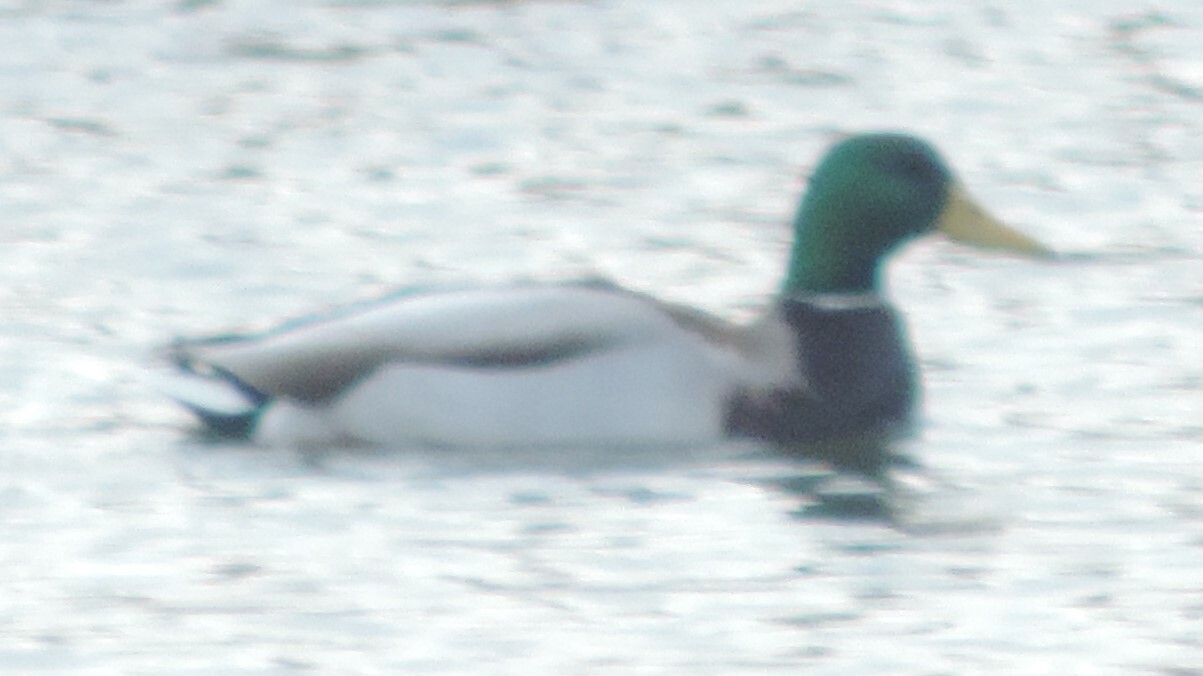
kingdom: Animalia
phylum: Chordata
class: Aves
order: Anseriformes
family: Anatidae
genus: Anas
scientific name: Anas platyrhynchos
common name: Mallard
